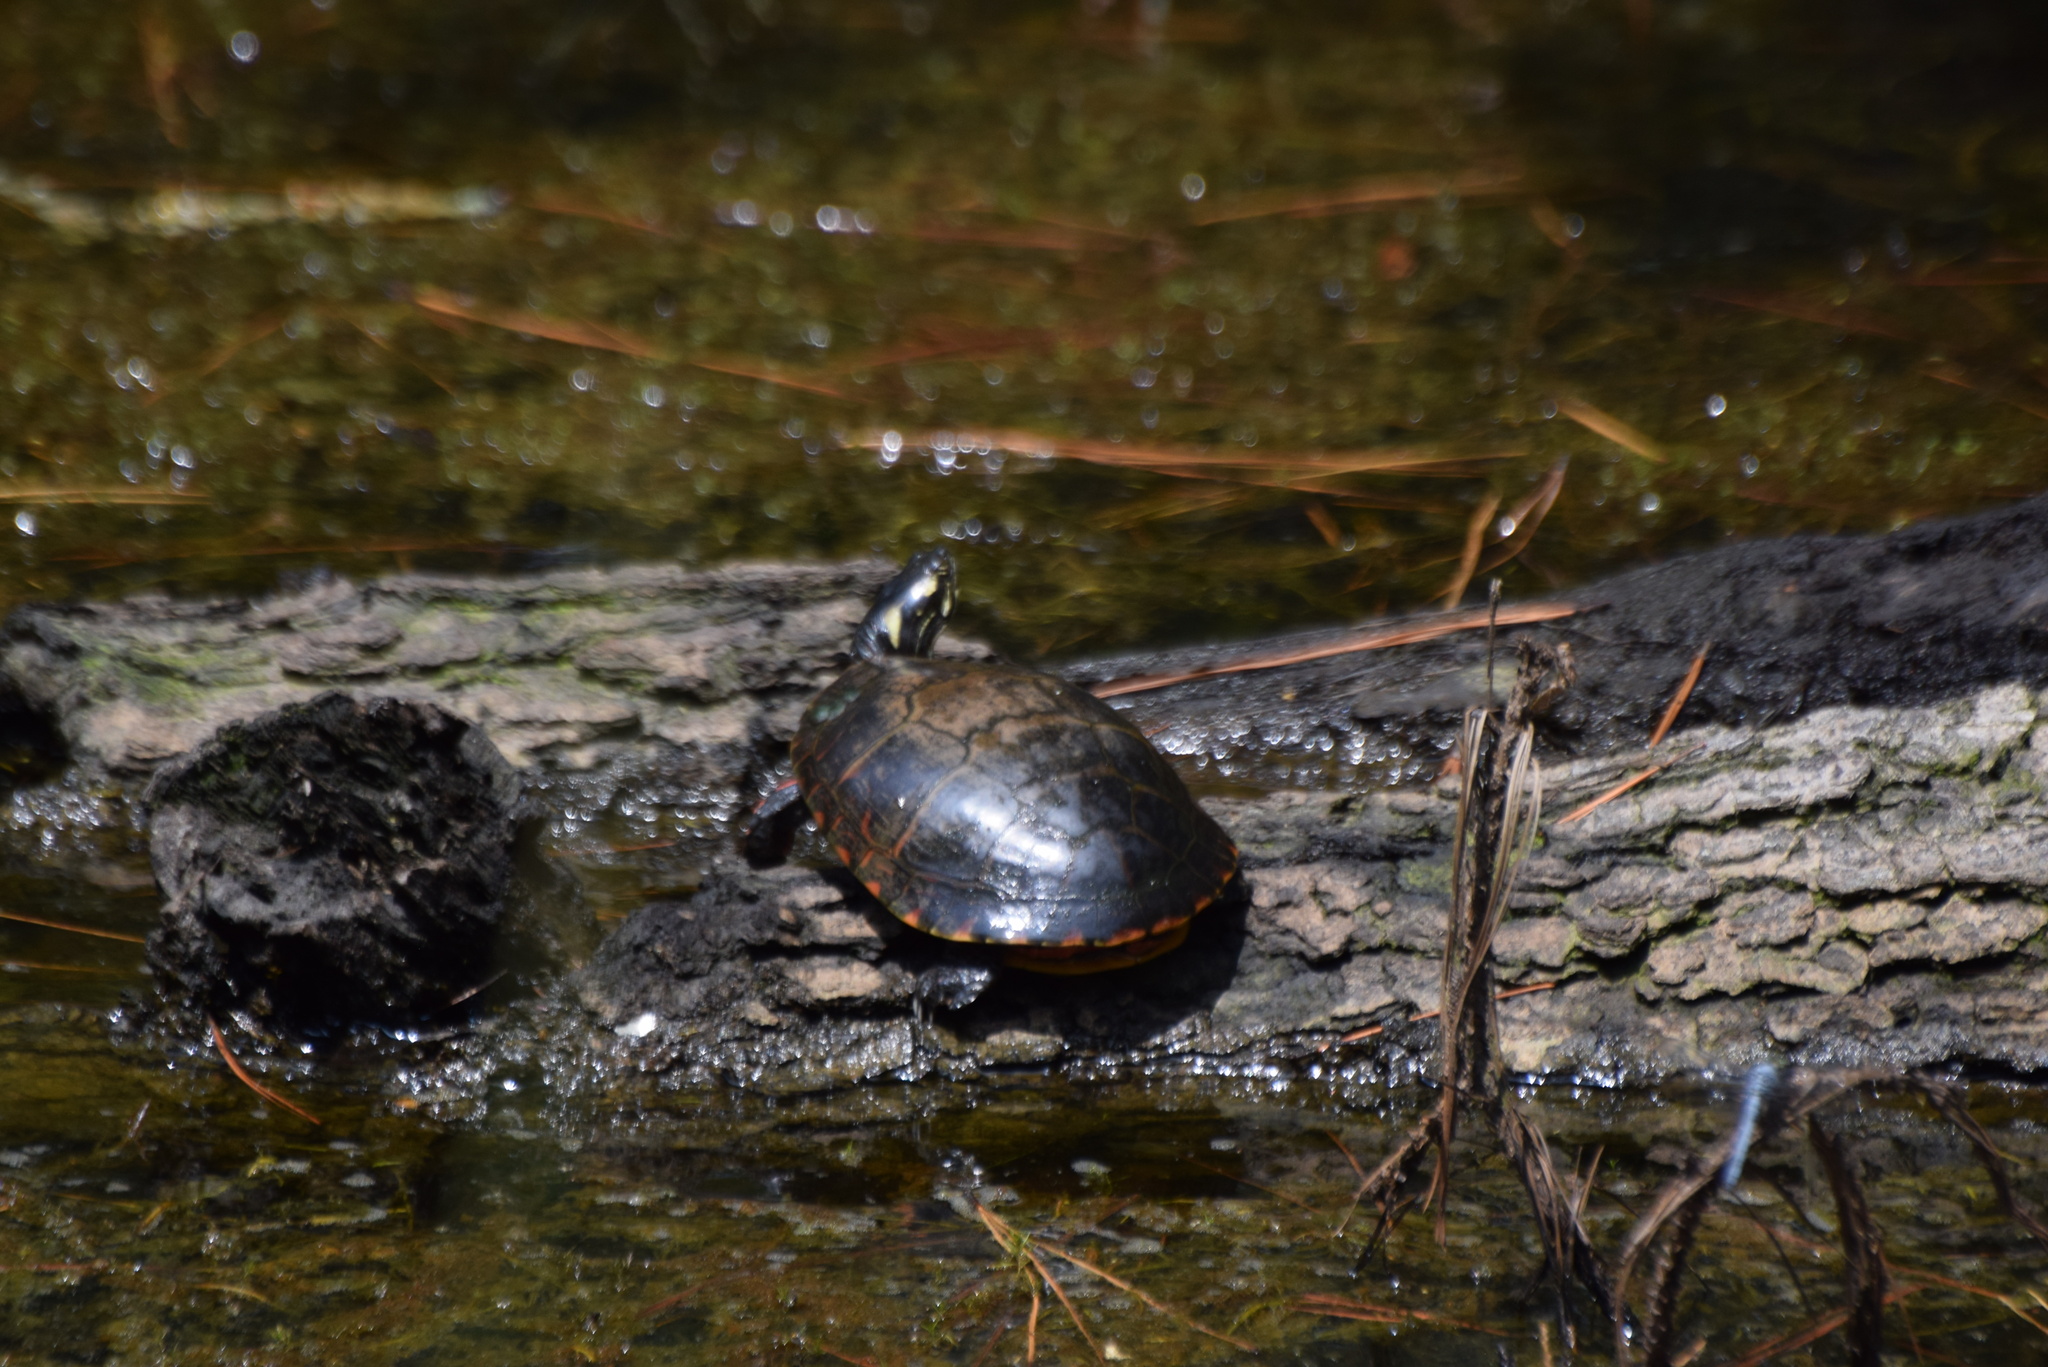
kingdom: Animalia
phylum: Chordata
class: Testudines
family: Emydidae
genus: Chrysemys
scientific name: Chrysemys picta
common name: Painted turtle
